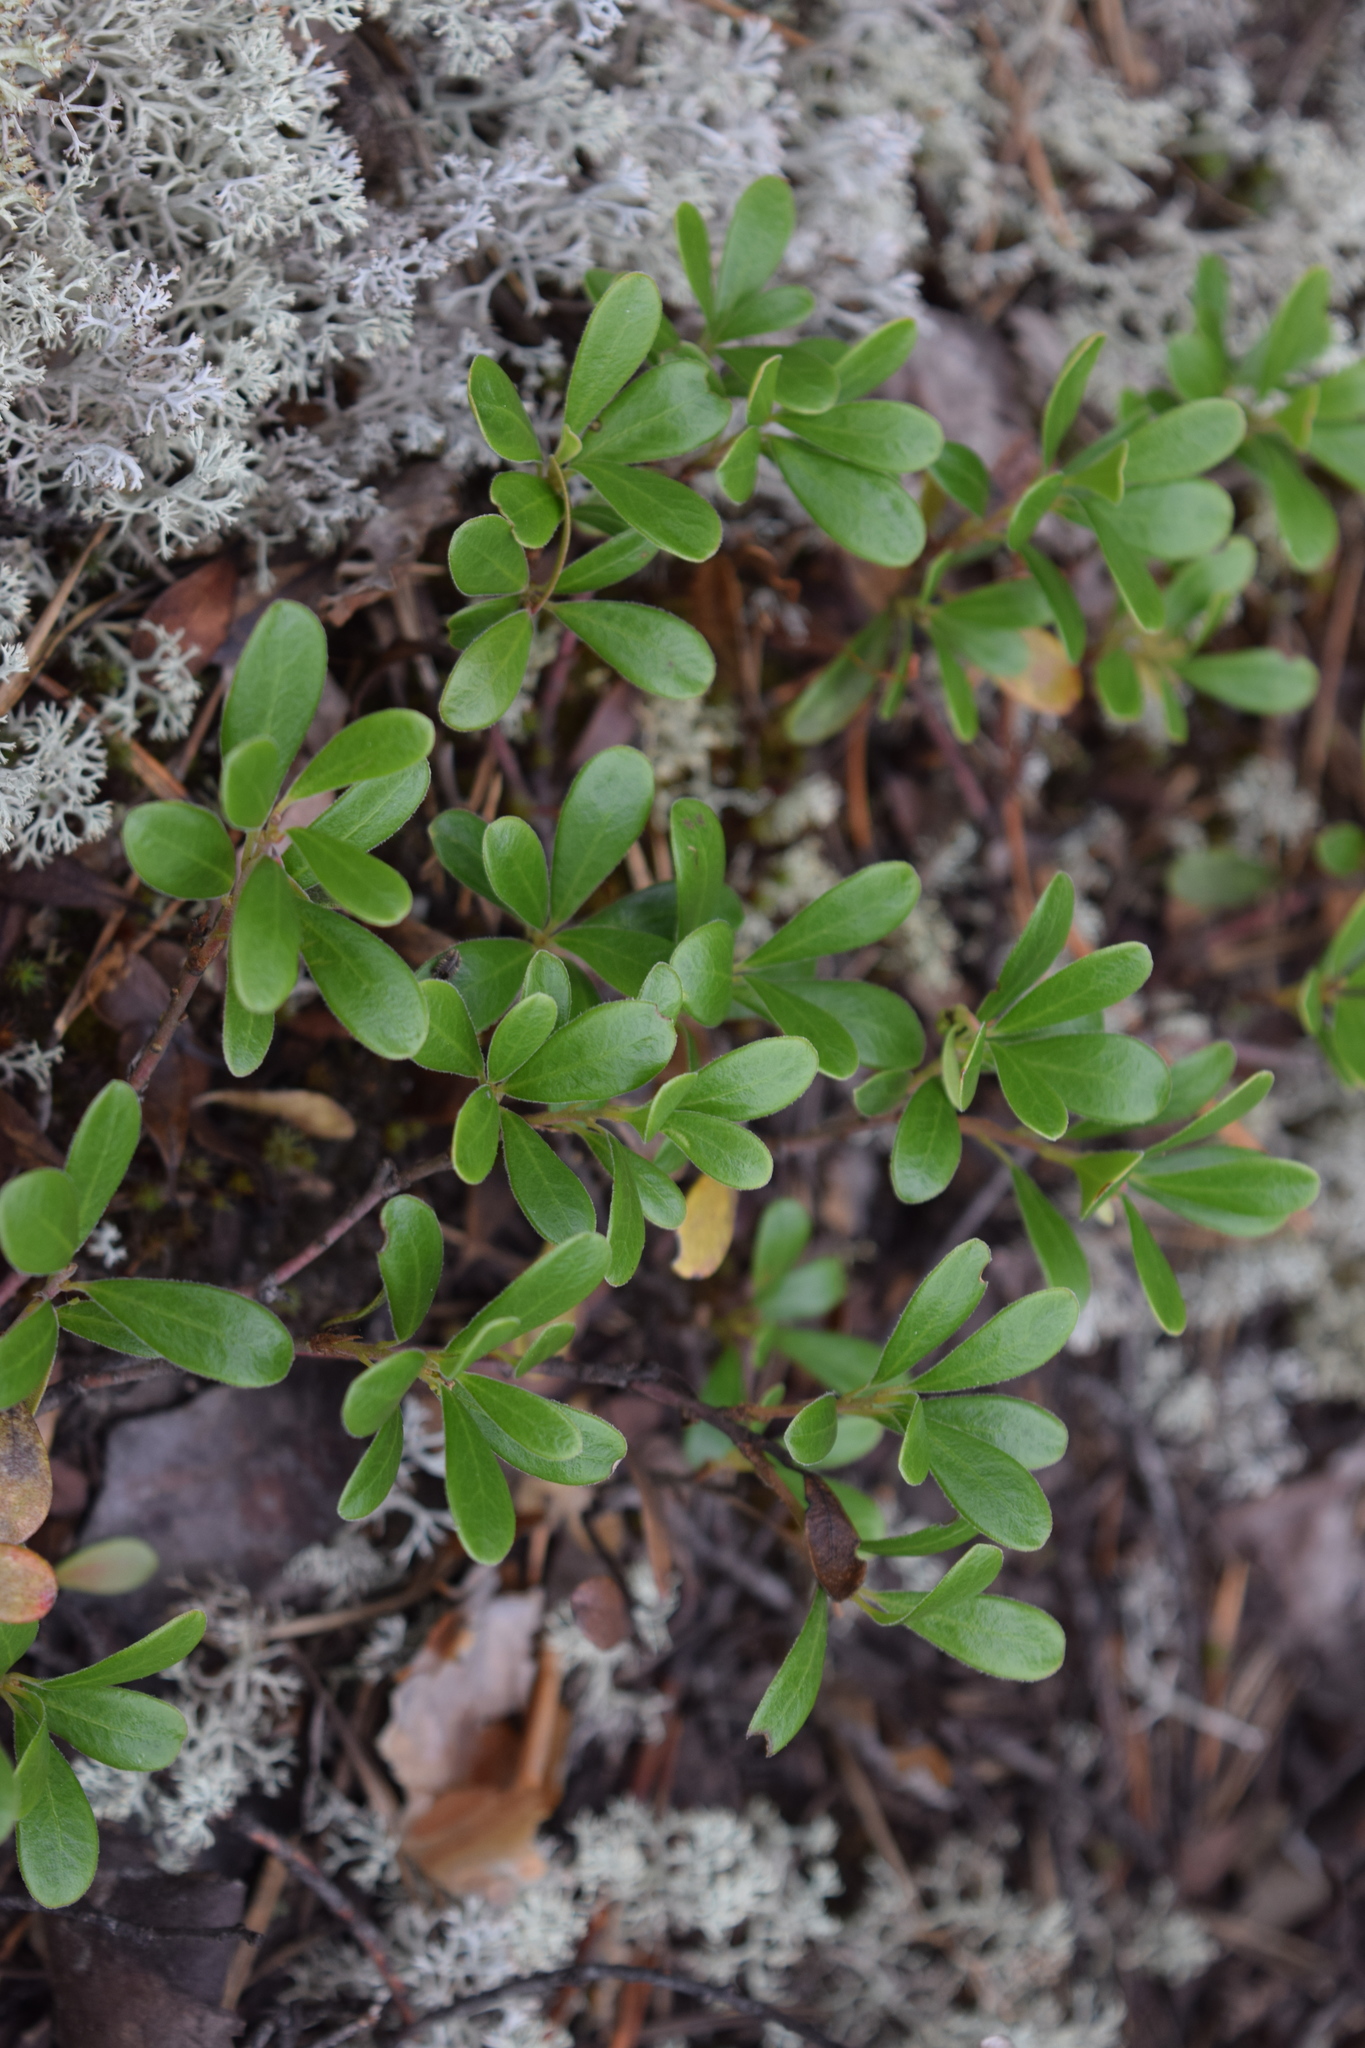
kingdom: Plantae
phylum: Tracheophyta
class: Magnoliopsida
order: Ericales
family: Ericaceae
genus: Arctostaphylos
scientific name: Arctostaphylos uva-ursi
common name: Bearberry
